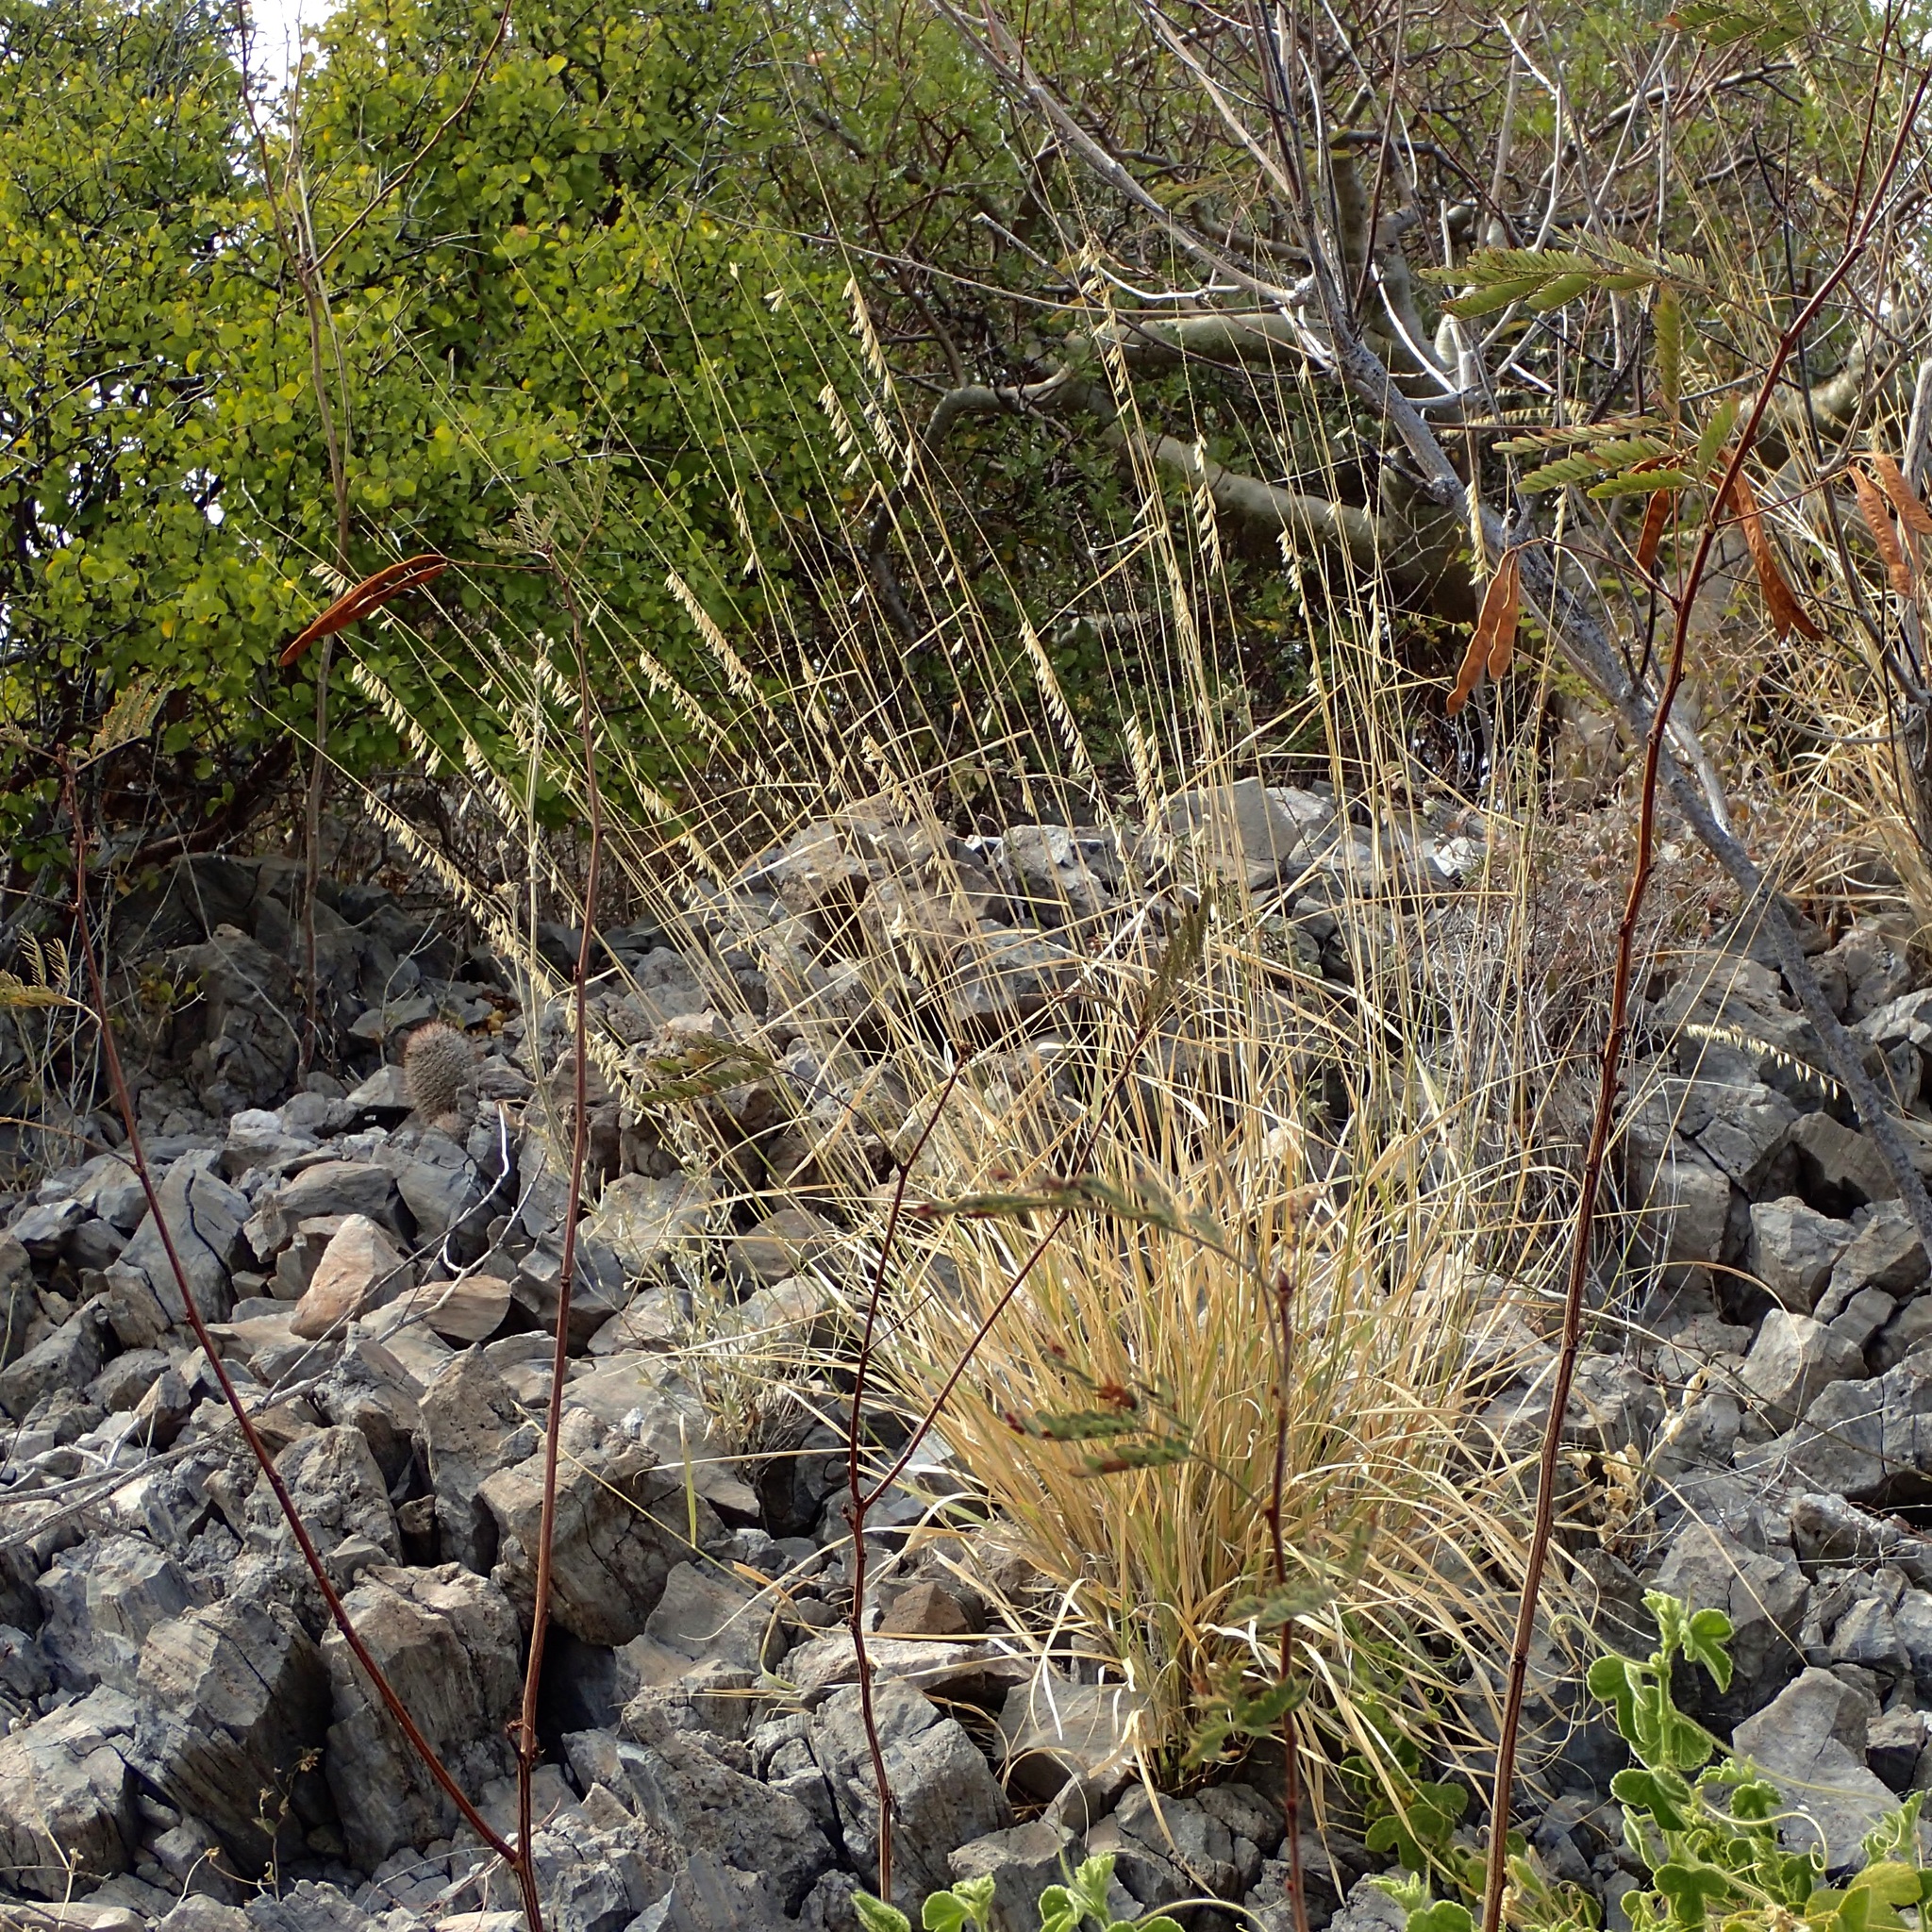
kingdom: Plantae
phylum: Tracheophyta
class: Liliopsida
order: Poales
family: Poaceae
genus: Bouteloua
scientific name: Bouteloua reflexa
